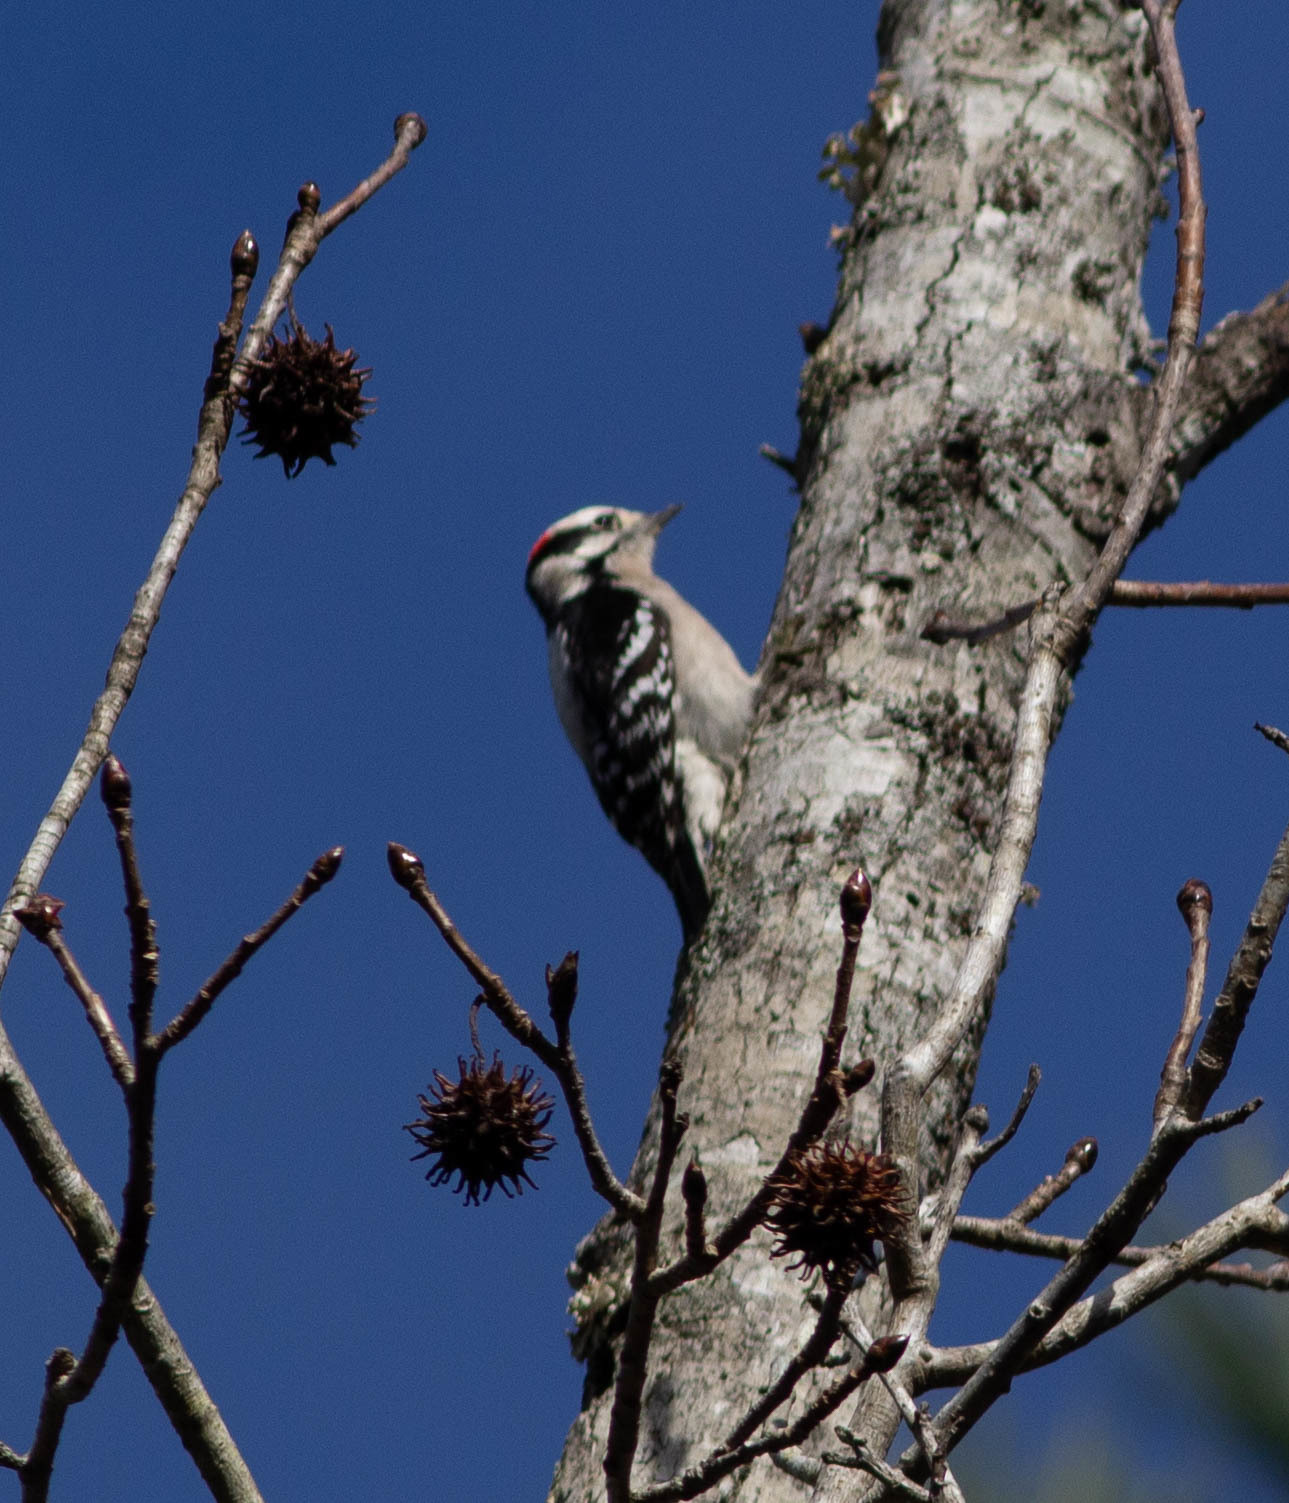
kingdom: Animalia
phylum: Chordata
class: Aves
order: Piciformes
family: Picidae
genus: Dryobates
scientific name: Dryobates pubescens
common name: Downy woodpecker
